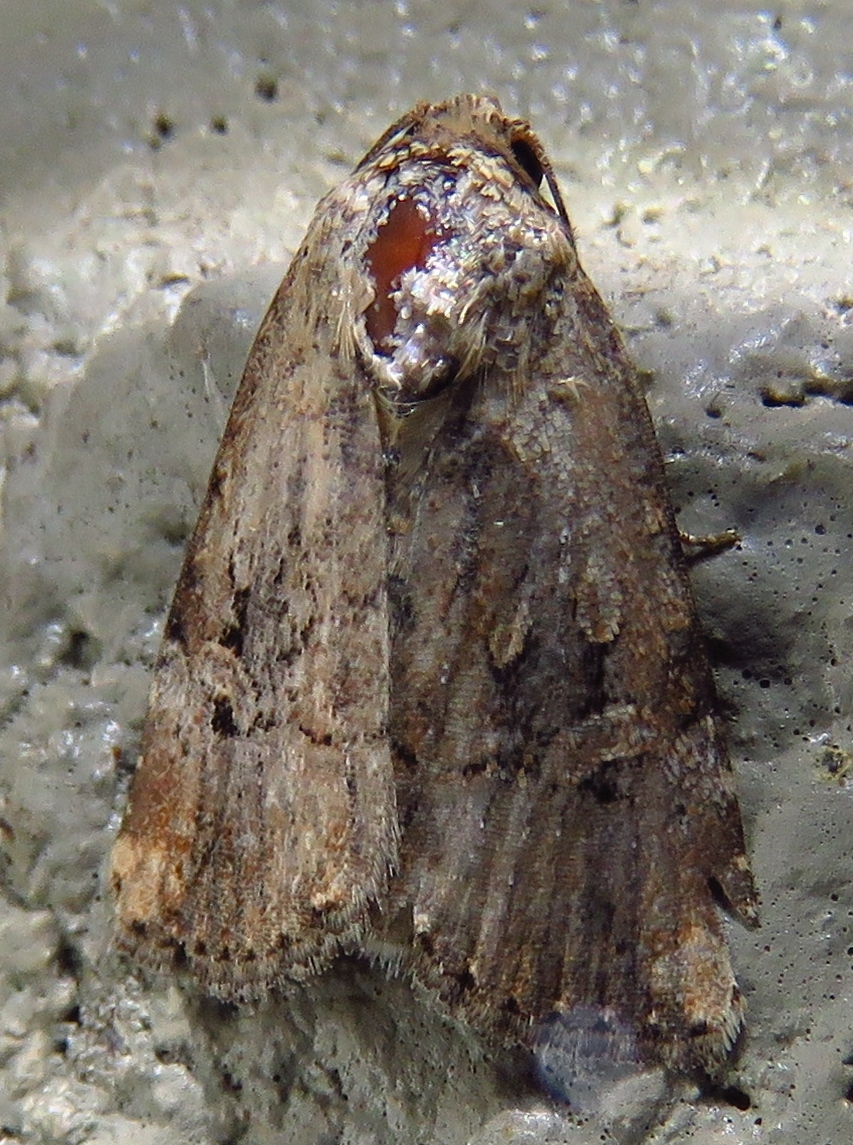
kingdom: Animalia
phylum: Arthropoda
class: Insecta
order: Lepidoptera
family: Noctuidae
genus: Elaphria
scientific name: Elaphria chalcedonia
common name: Chalcedony midget
